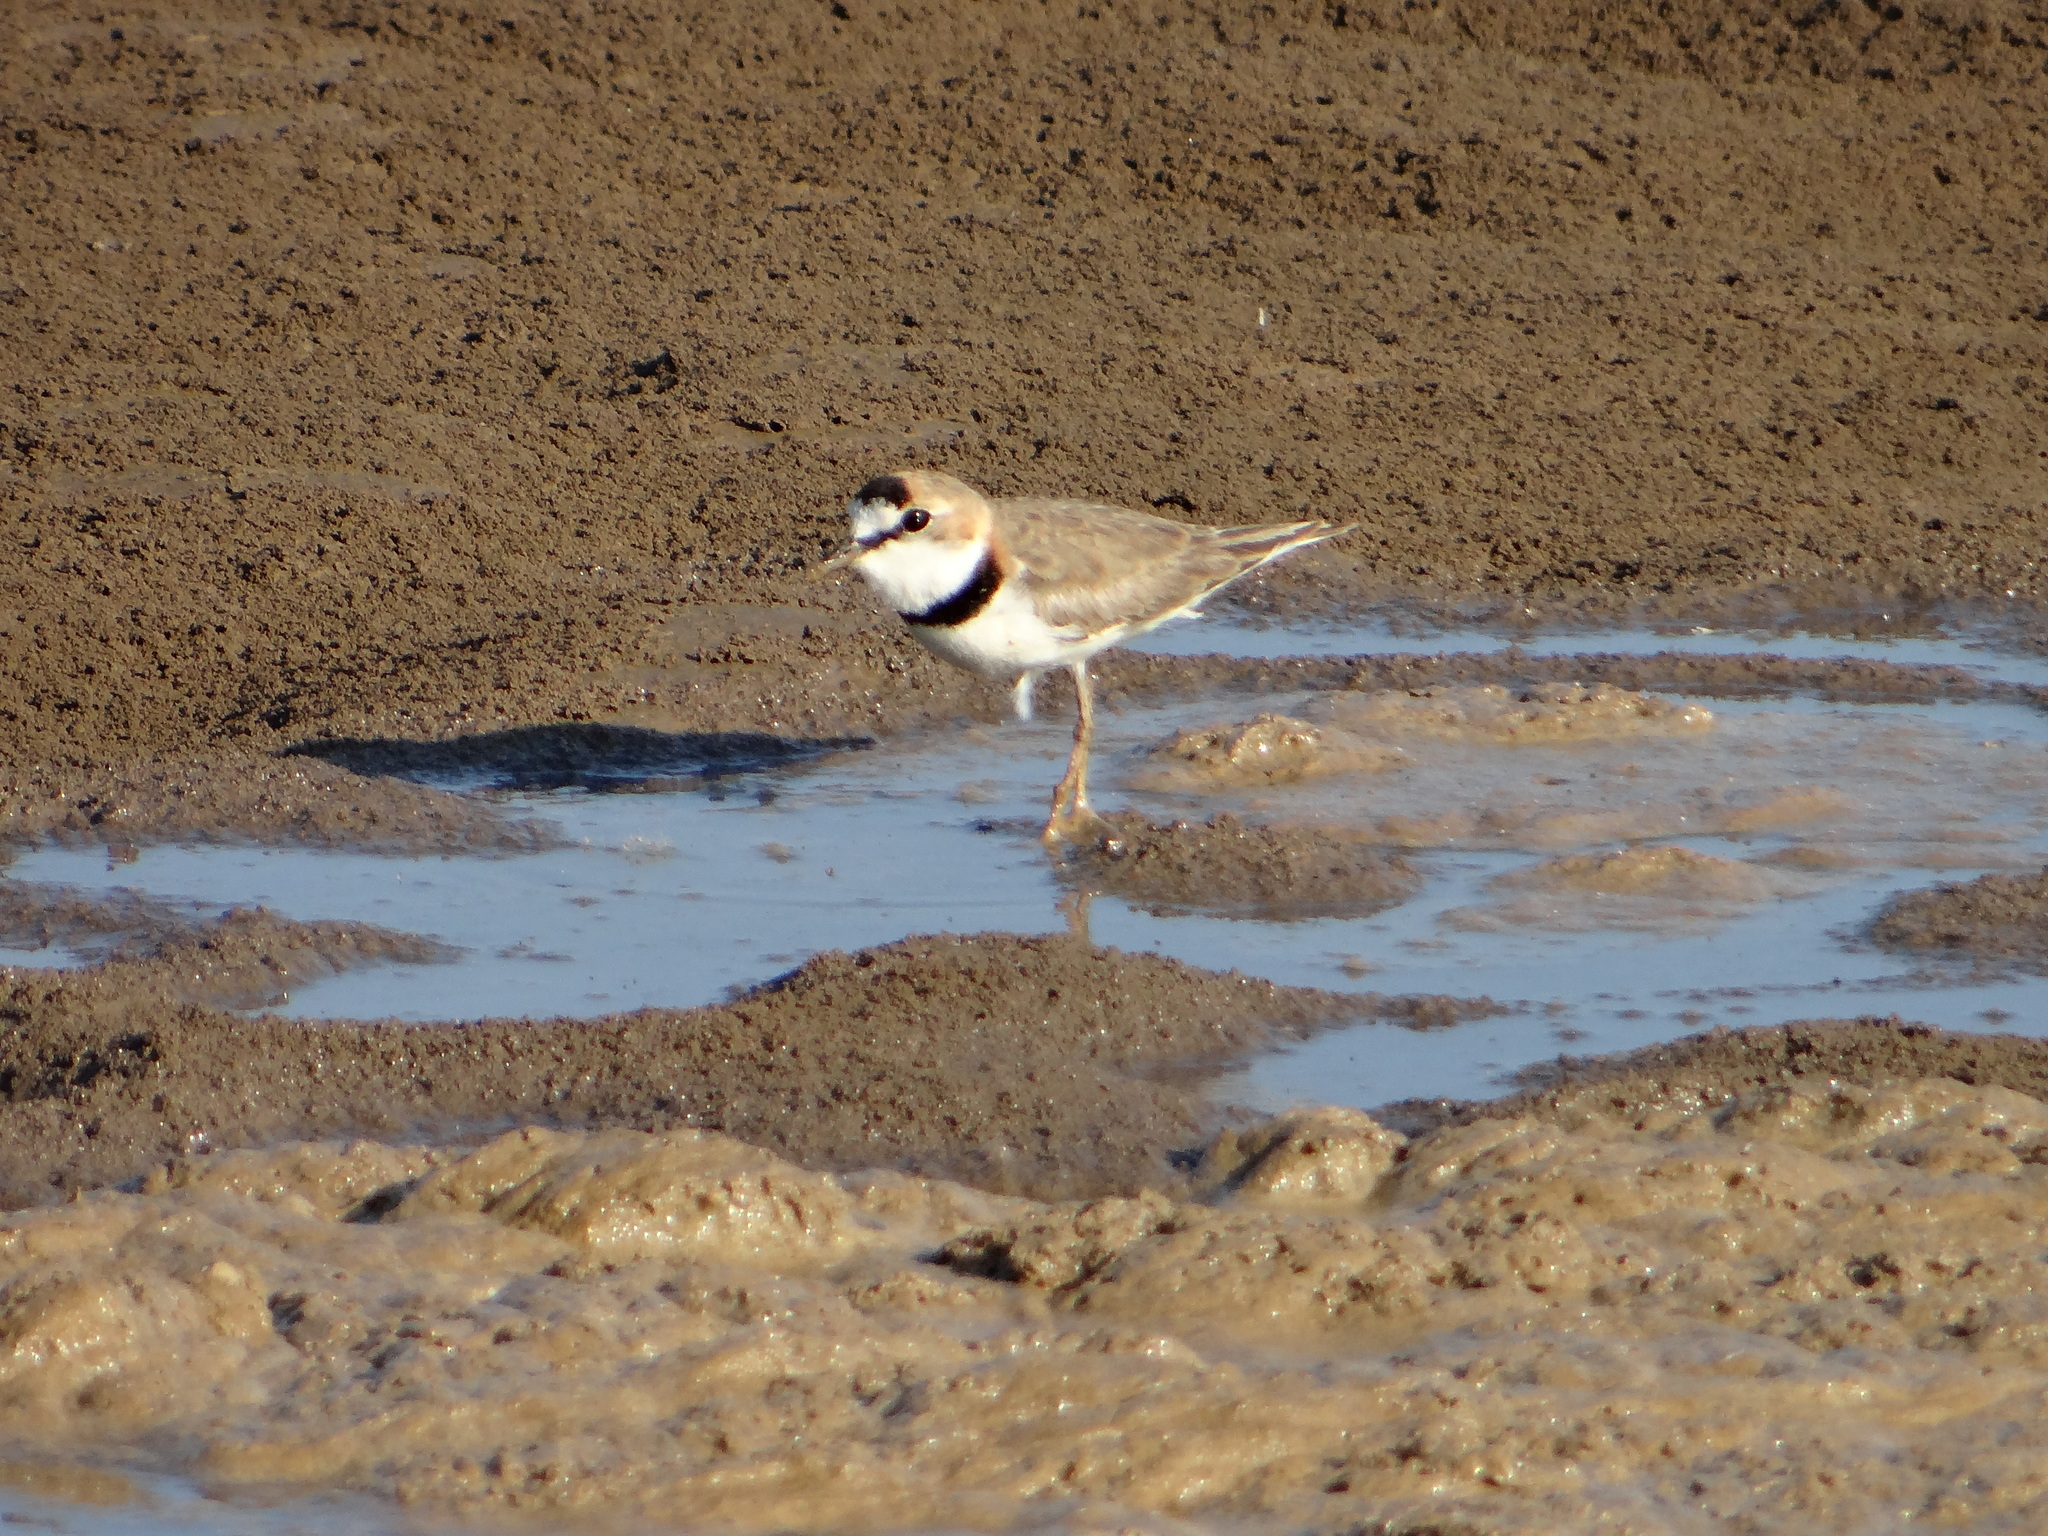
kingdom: Animalia
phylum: Chordata
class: Aves
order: Charadriiformes
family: Charadriidae
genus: Anarhynchus
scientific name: Anarhynchus
